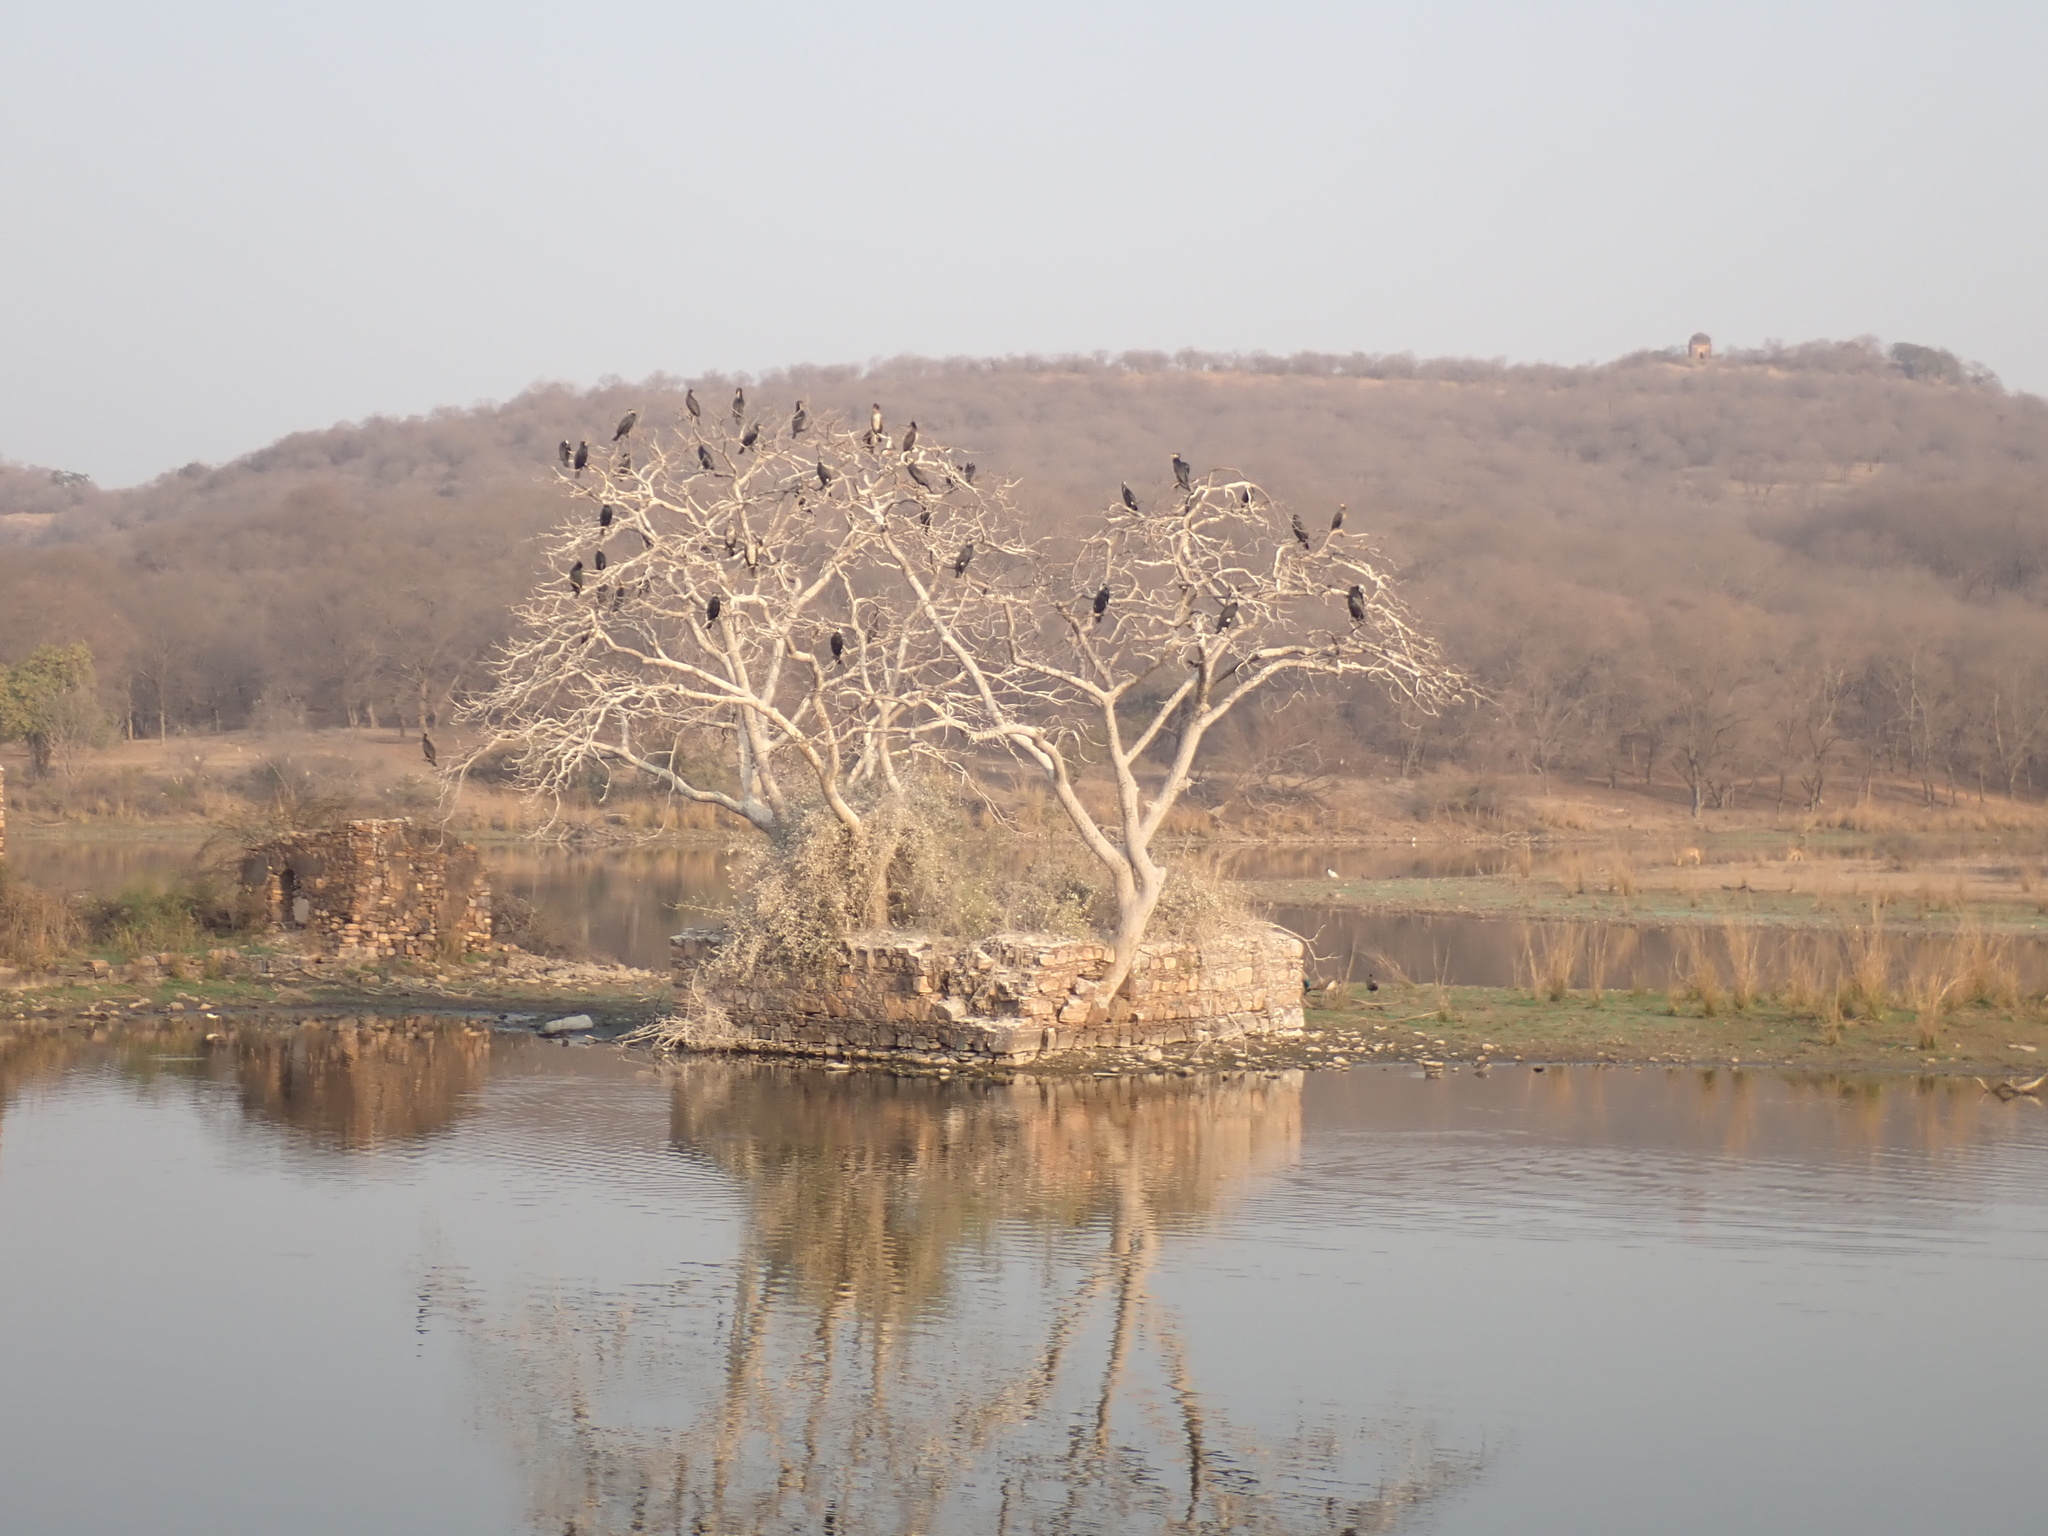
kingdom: Animalia
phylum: Chordata
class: Aves
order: Suliformes
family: Phalacrocoracidae
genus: Phalacrocorax
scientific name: Phalacrocorax carbo
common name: Great cormorant
